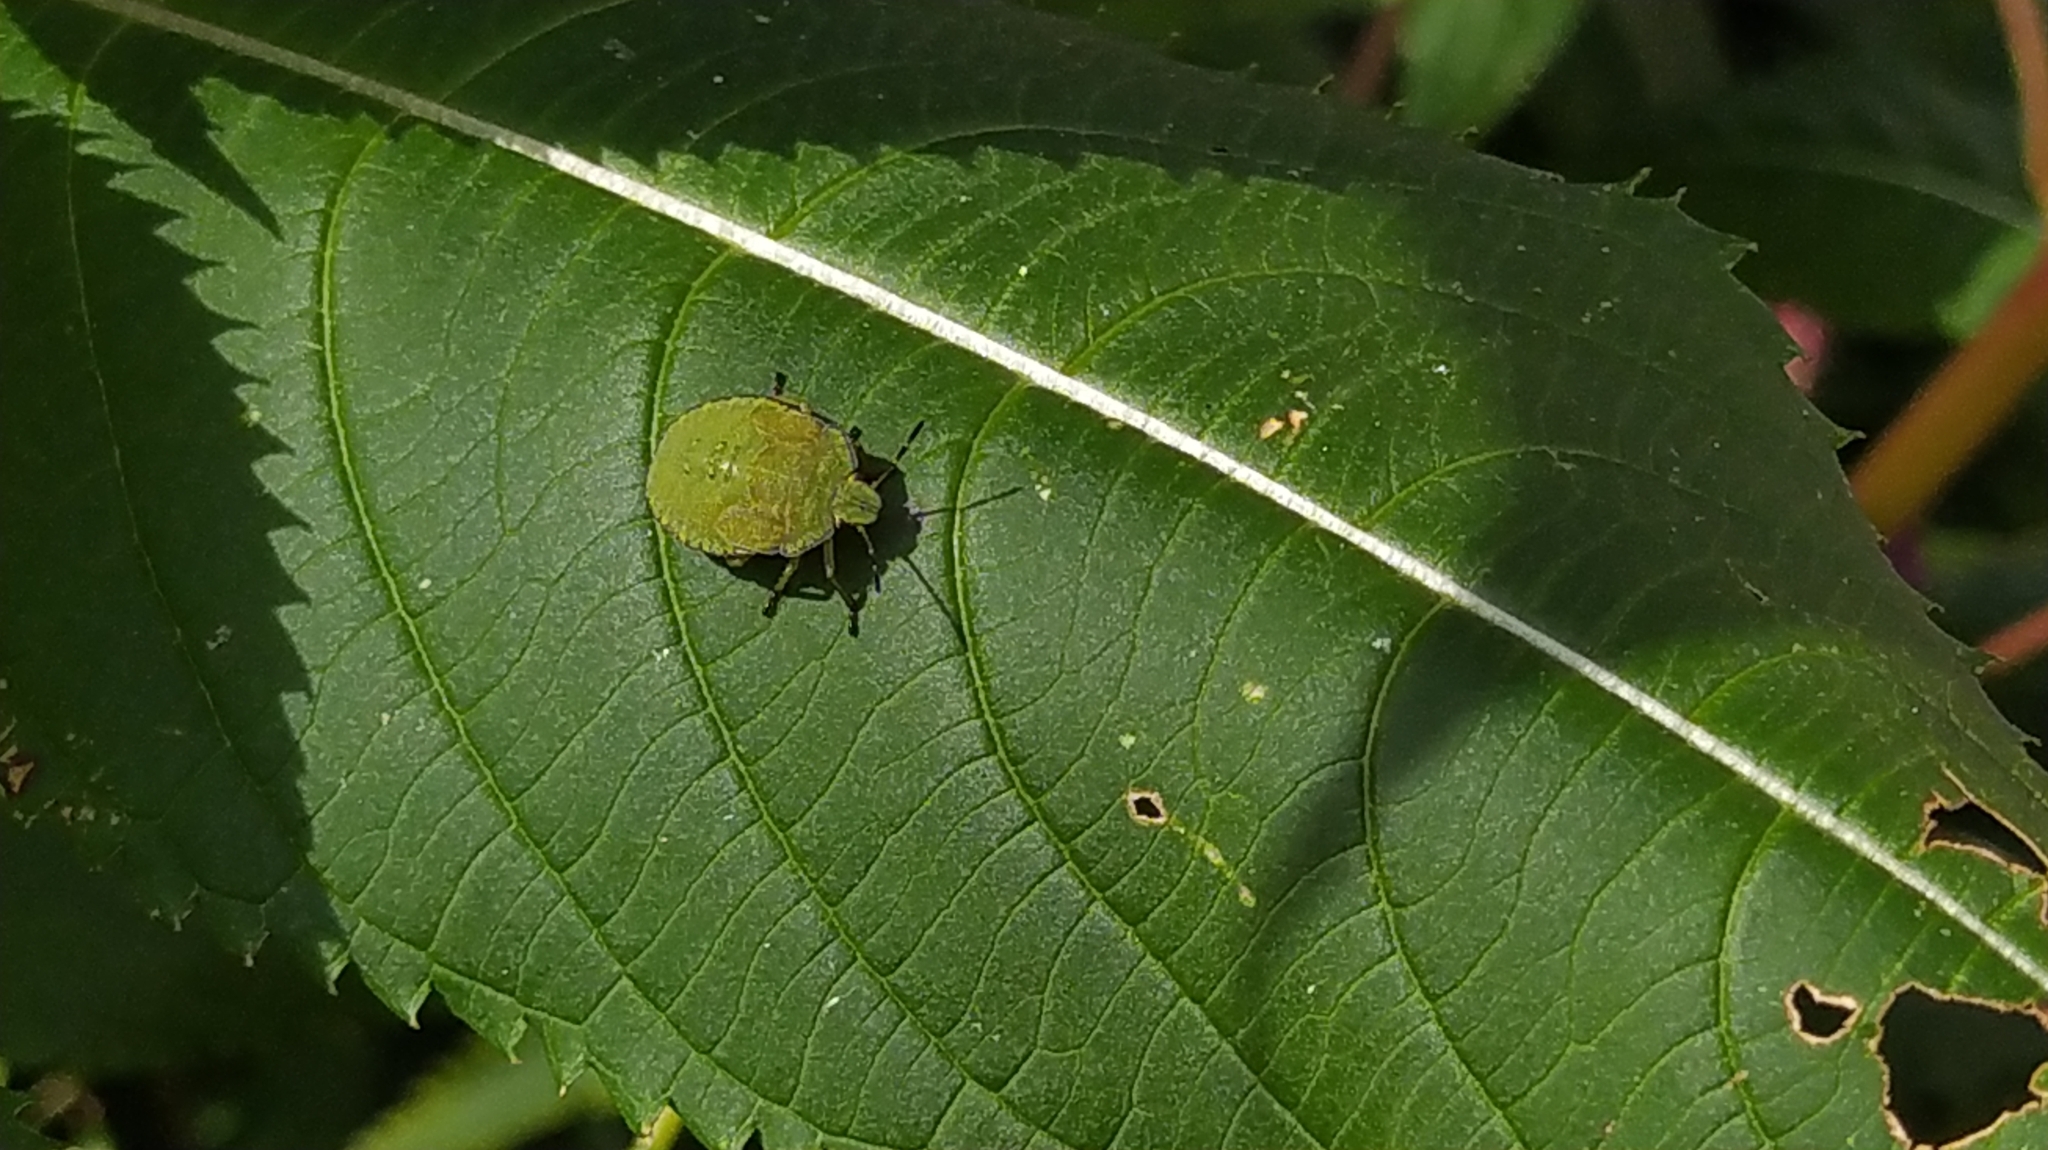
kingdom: Animalia
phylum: Arthropoda
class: Insecta
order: Hemiptera
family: Pentatomidae
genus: Palomena
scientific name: Palomena prasina
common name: Green shieldbug
